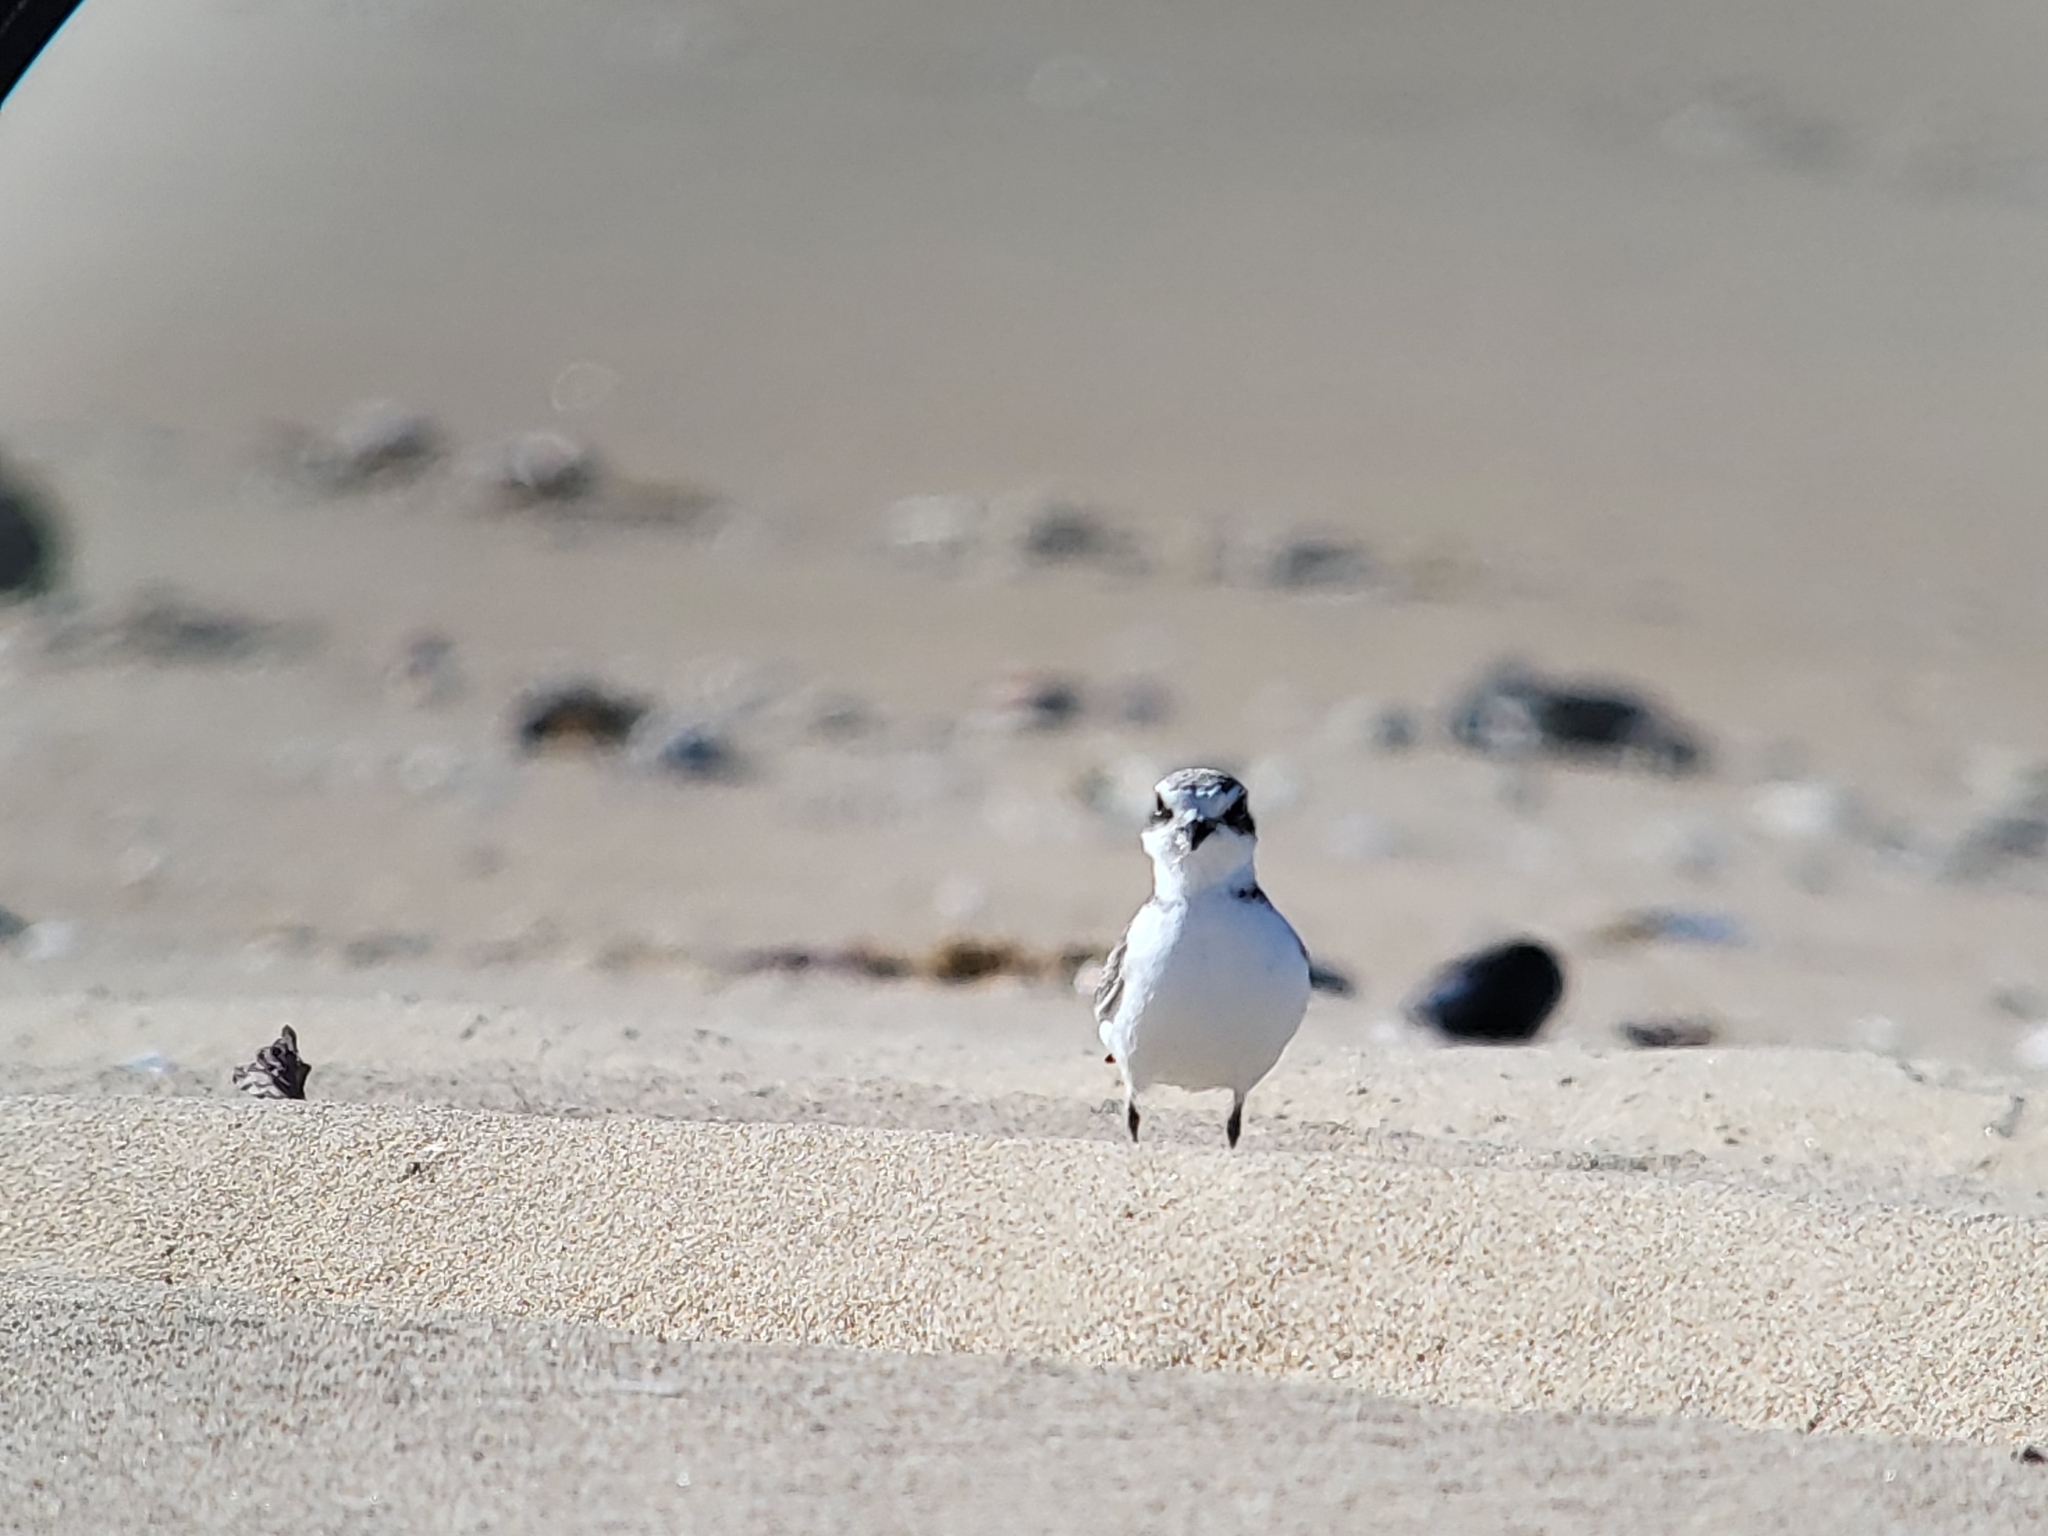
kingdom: Animalia
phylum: Chordata
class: Aves
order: Charadriiformes
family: Charadriidae
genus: Anarhynchus
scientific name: Anarhynchus
